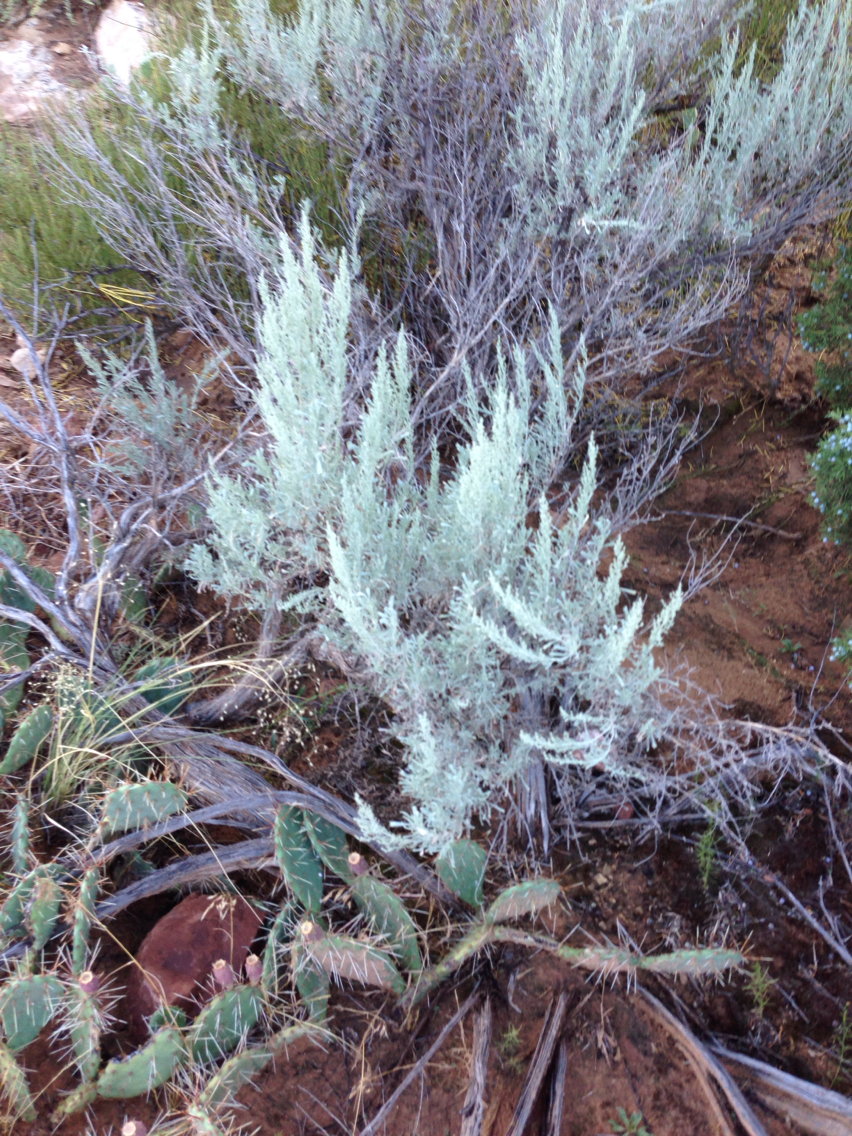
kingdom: Plantae
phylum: Tracheophyta
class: Magnoliopsida
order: Asterales
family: Asteraceae
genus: Artemisia
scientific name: Artemisia tridentata
